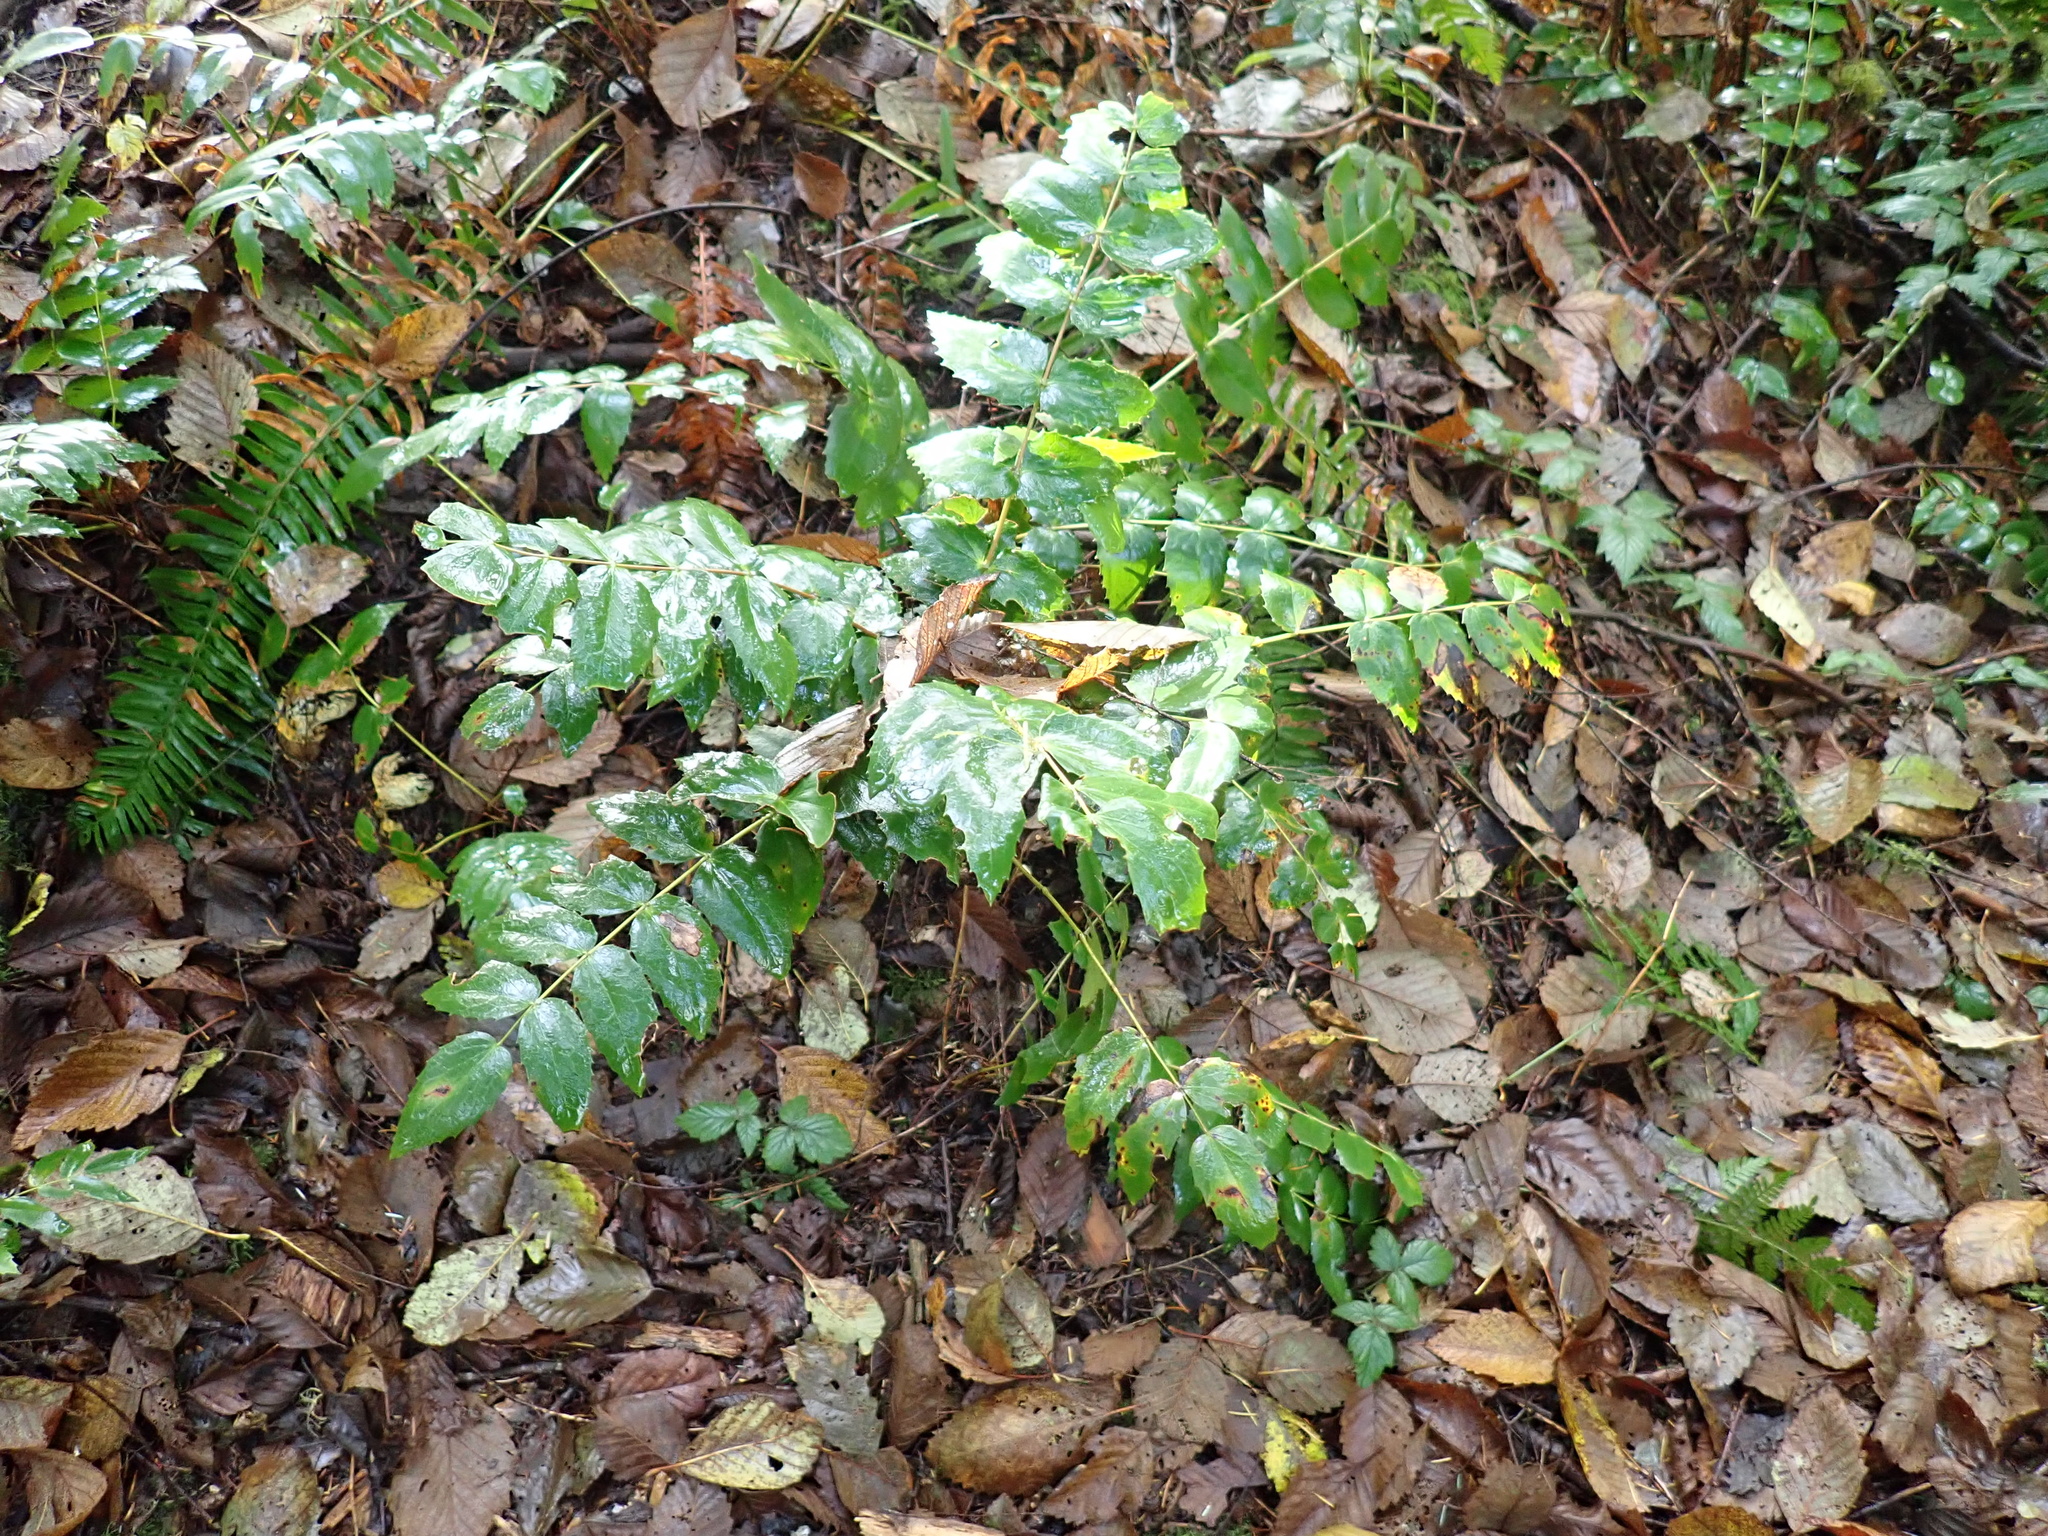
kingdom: Plantae
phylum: Tracheophyta
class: Magnoliopsida
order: Ranunculales
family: Berberidaceae
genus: Mahonia
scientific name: Mahonia nervosa
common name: Cascade oregon-grape
